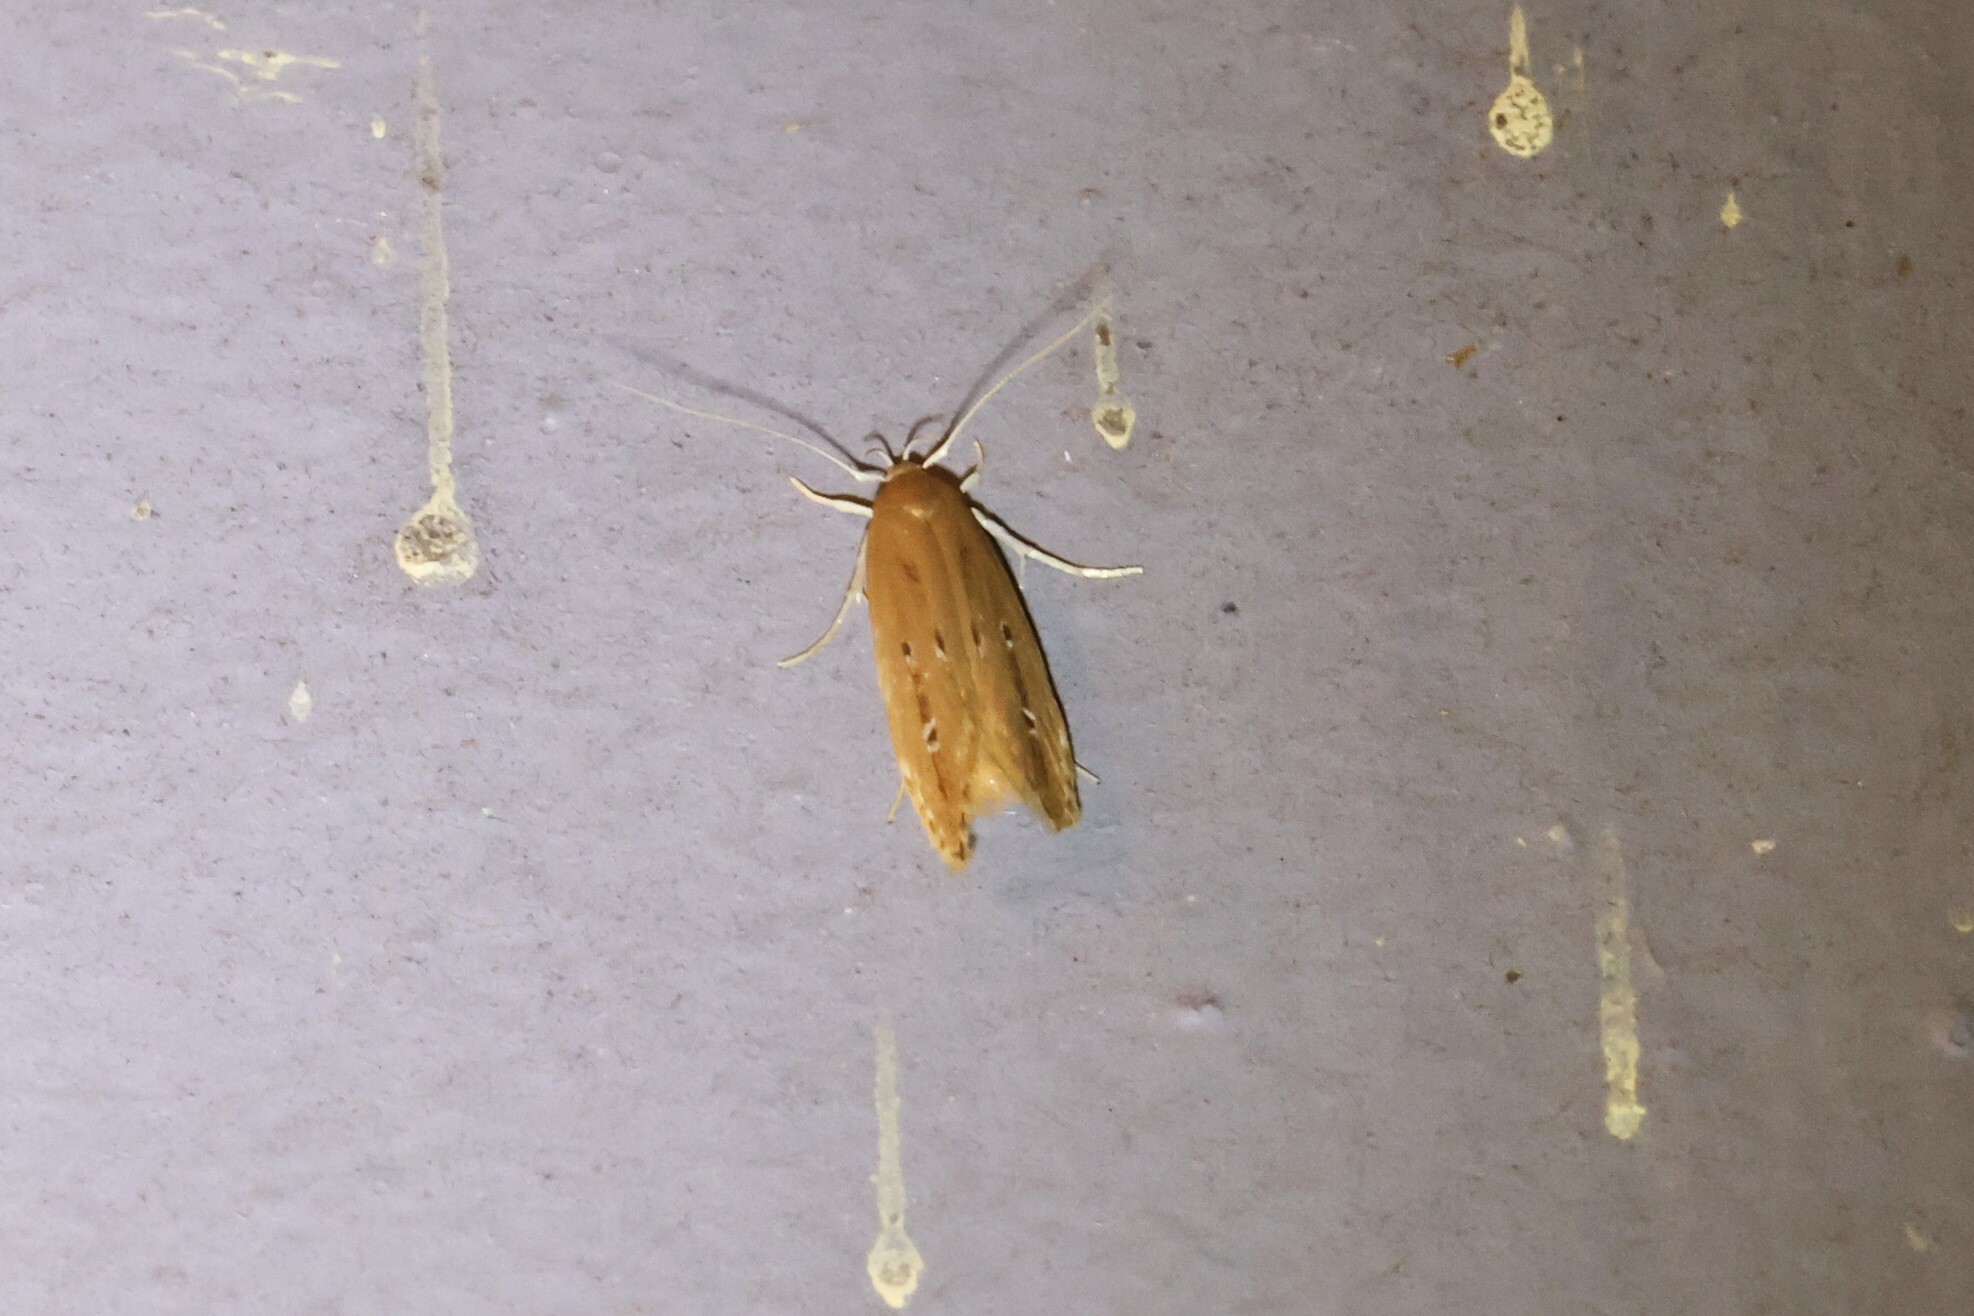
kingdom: Animalia
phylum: Arthropoda
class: Insecta
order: Lepidoptera
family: Cosmopterigidae
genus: Limnaecia
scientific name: Limnaecia phragmitella
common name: Bulrush cosmet
